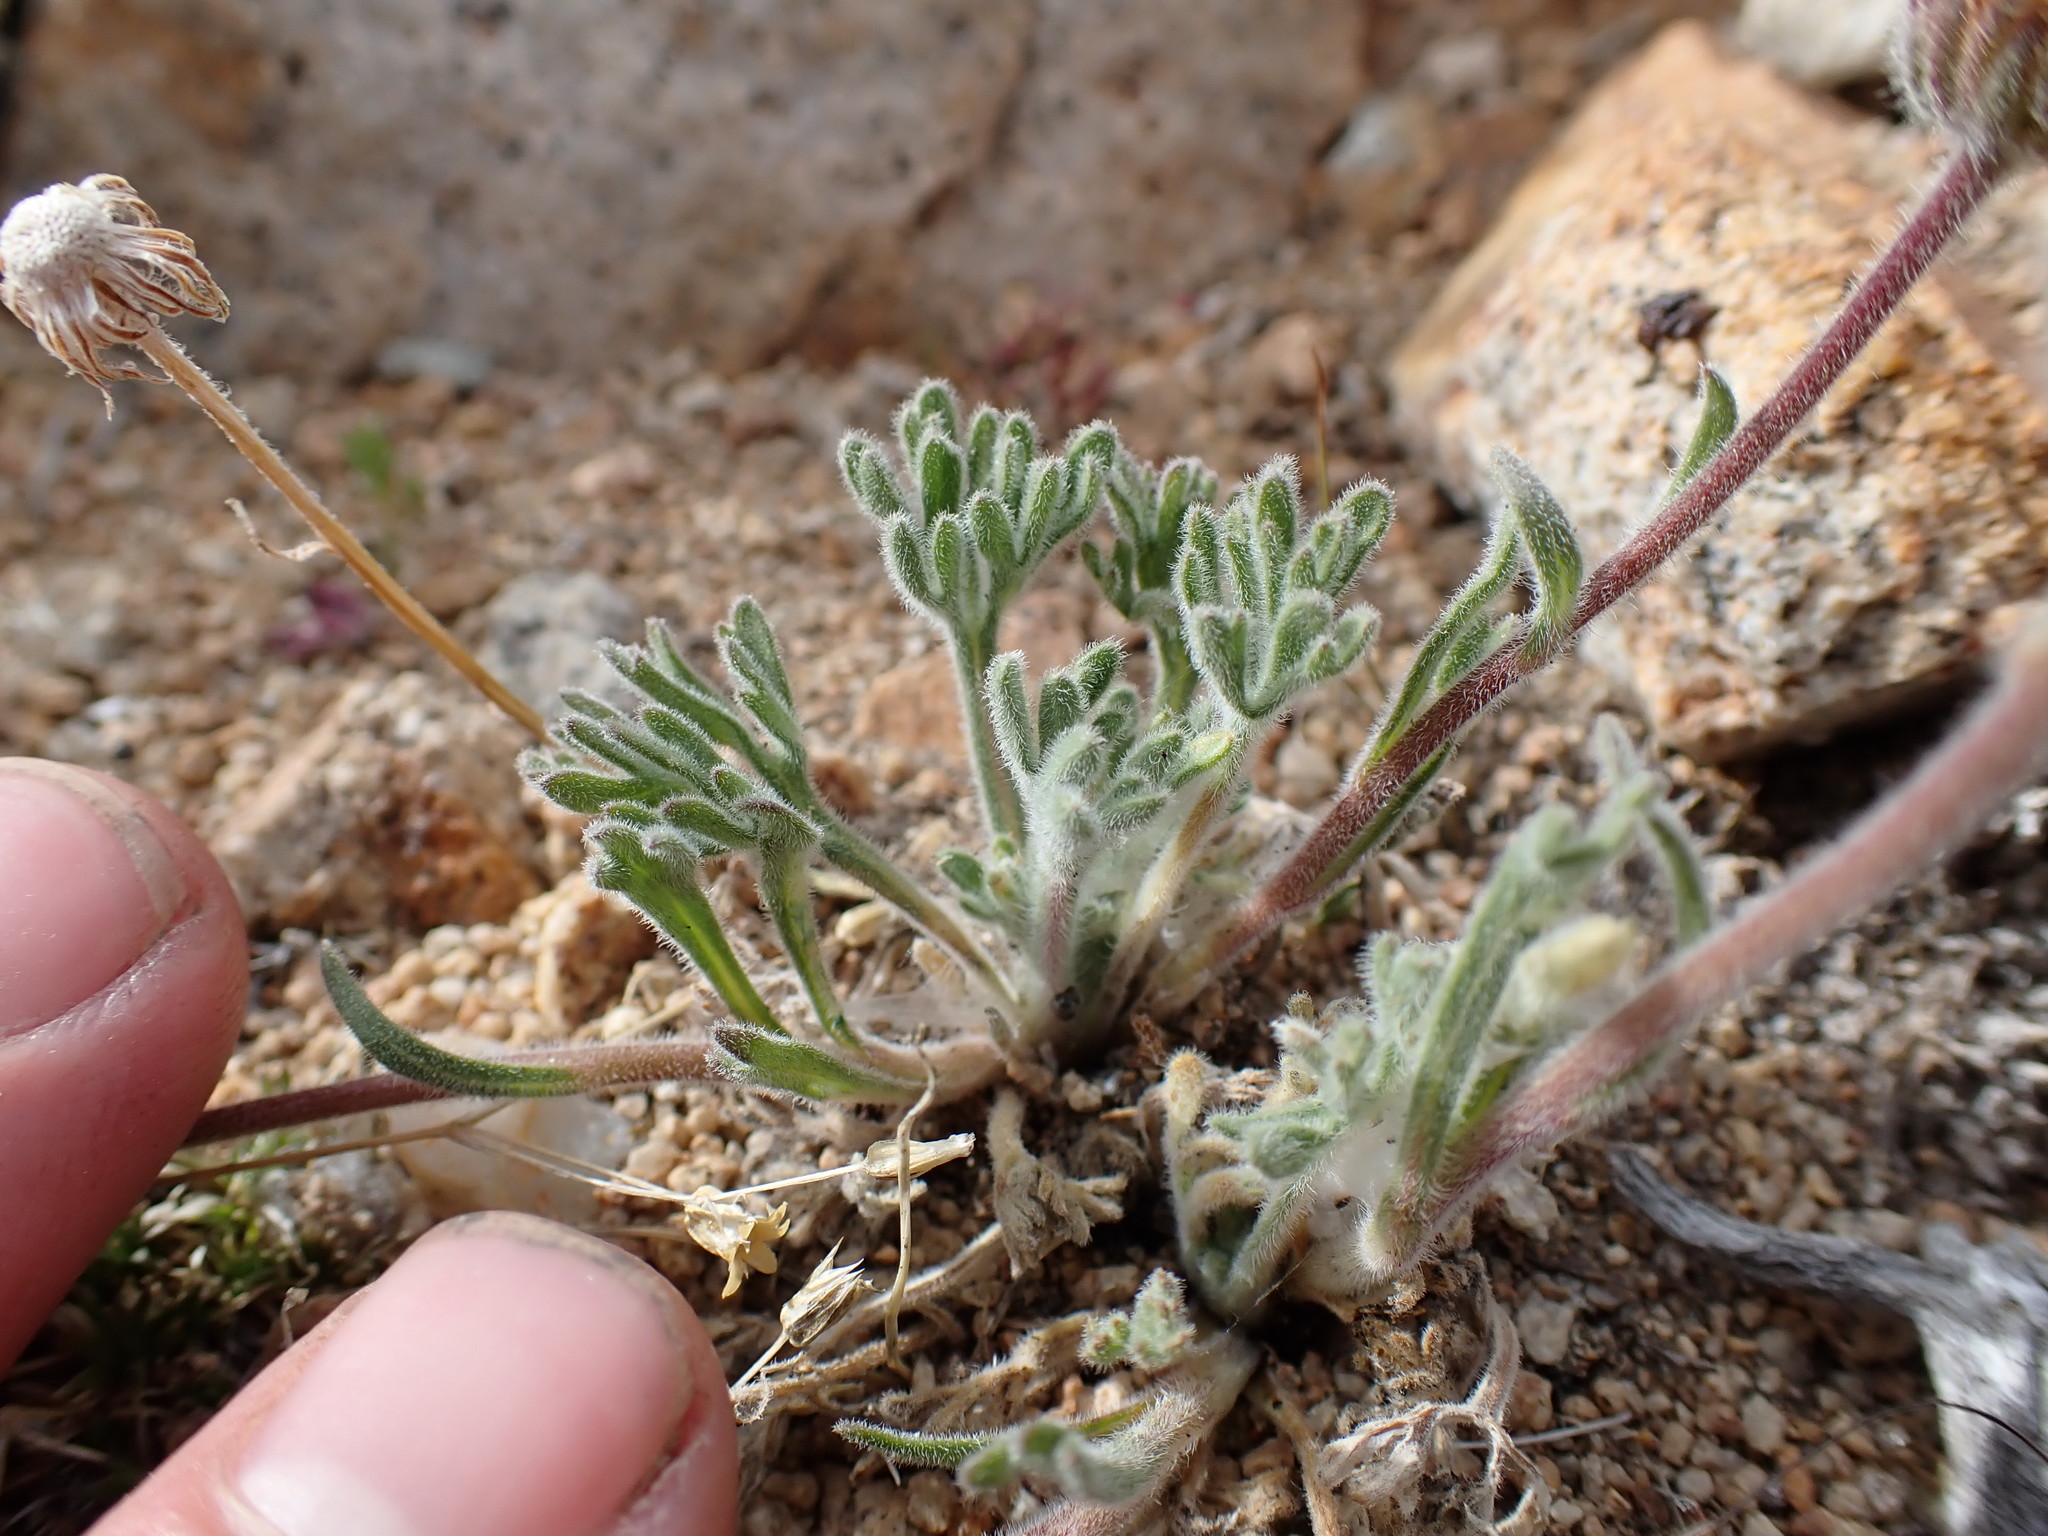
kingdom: Plantae
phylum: Tracheophyta
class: Magnoliopsida
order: Asterales
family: Asteraceae
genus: Erigeron
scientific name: Erigeron compositus
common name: Dwarf mountain fleabane
